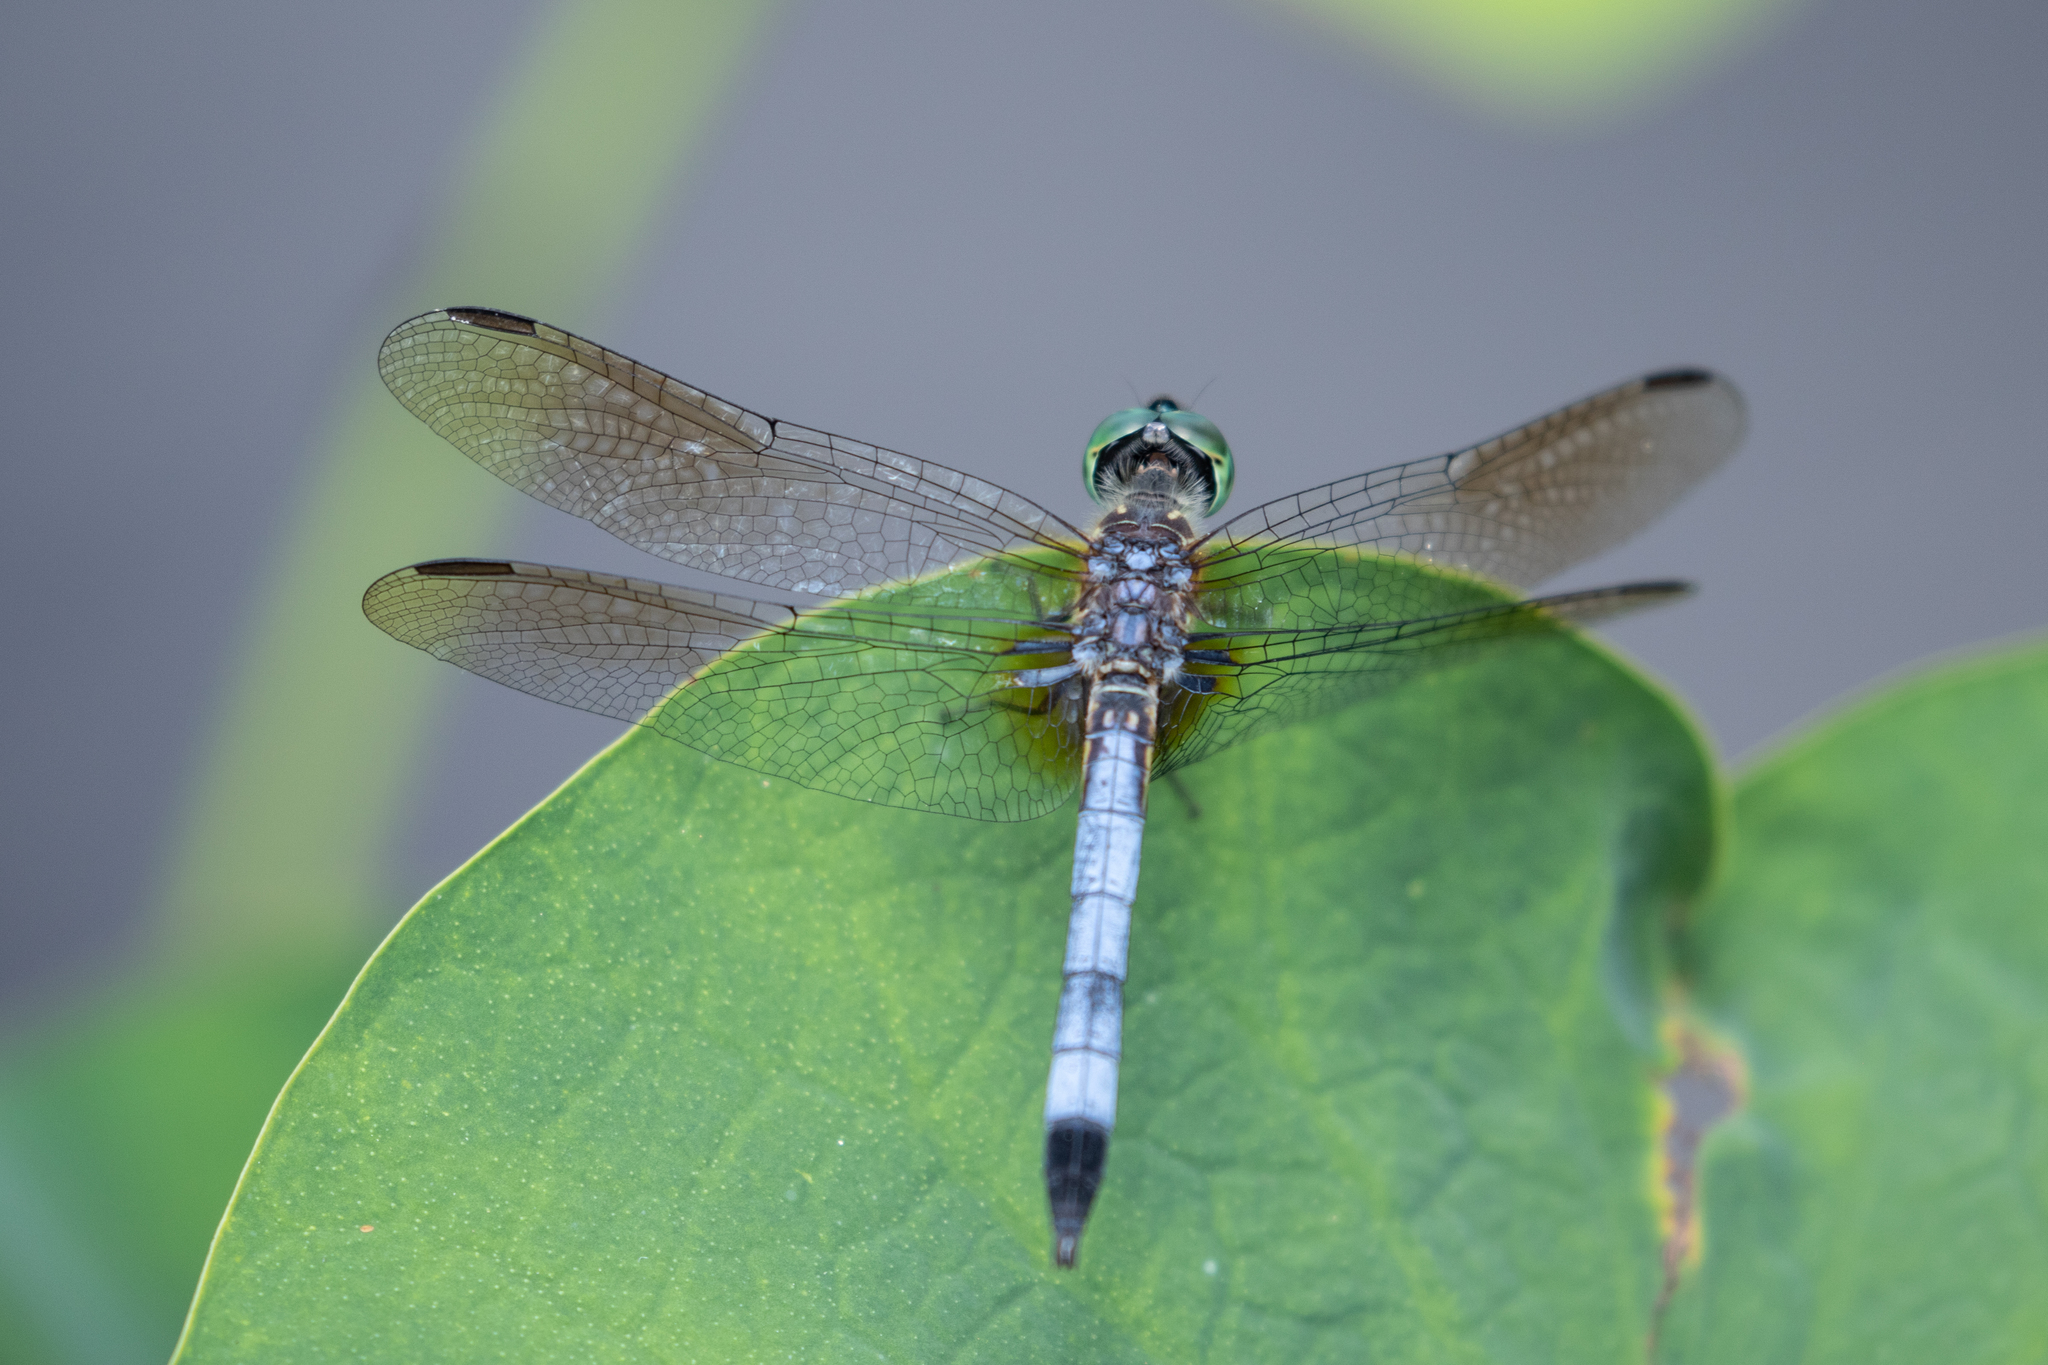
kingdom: Animalia
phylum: Arthropoda
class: Insecta
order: Odonata
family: Libellulidae
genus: Pachydiplax
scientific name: Pachydiplax longipennis
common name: Blue dasher
